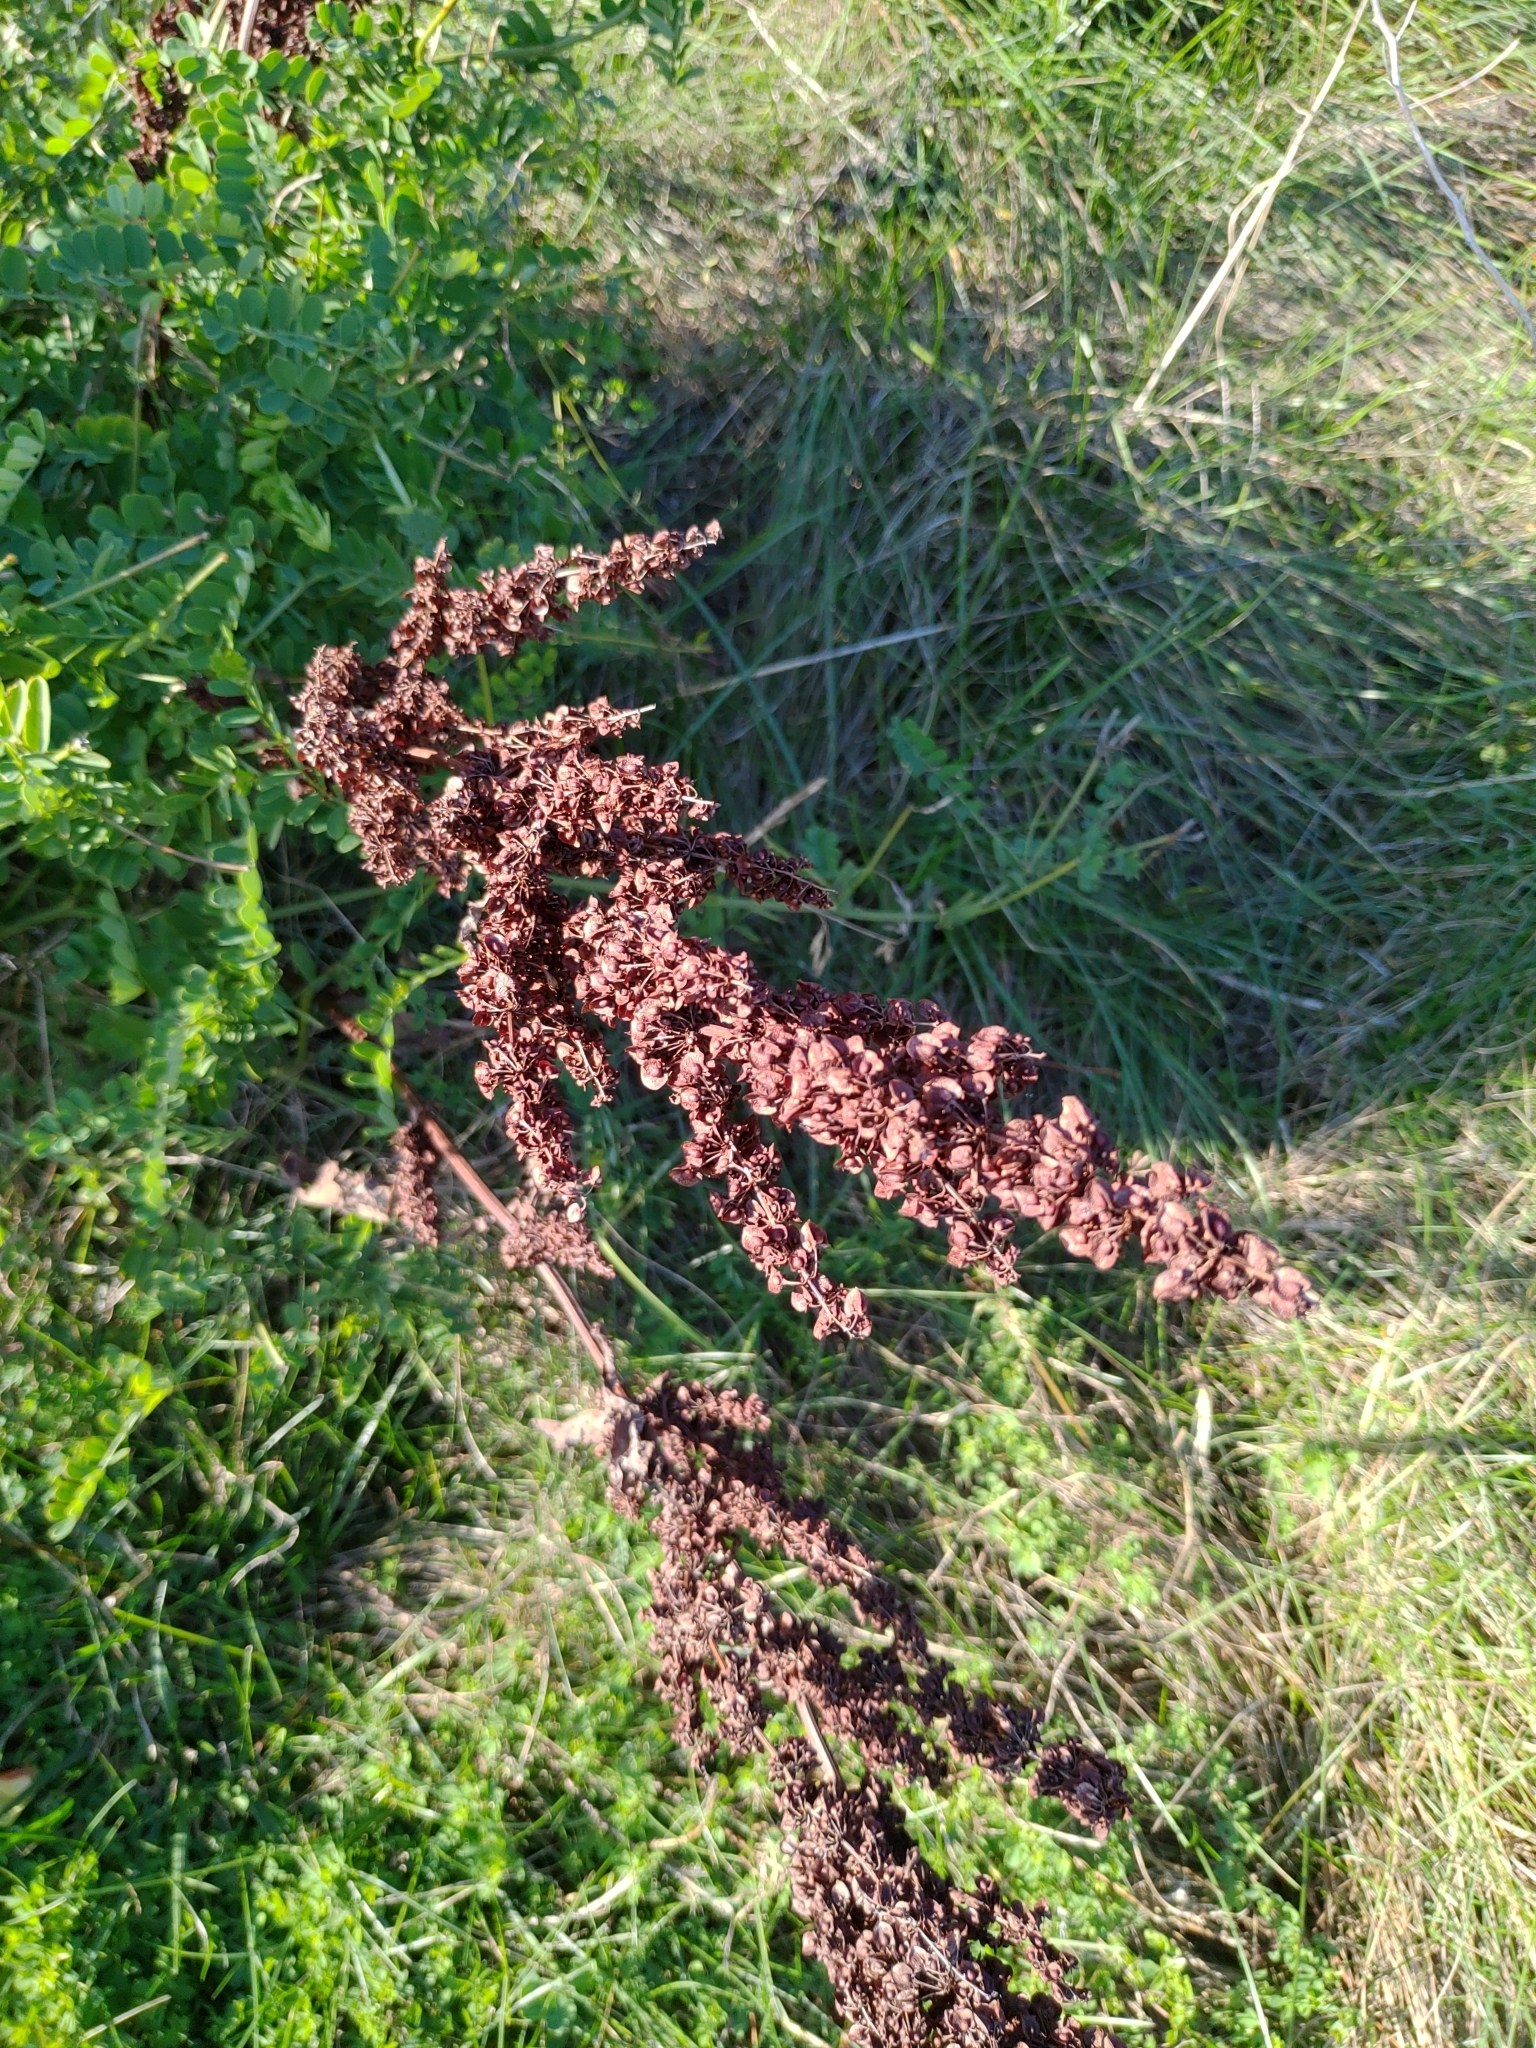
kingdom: Plantae
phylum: Tracheophyta
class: Magnoliopsida
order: Caryophyllales
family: Polygonaceae
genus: Rumex
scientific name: Rumex crispus
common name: Curled dock
